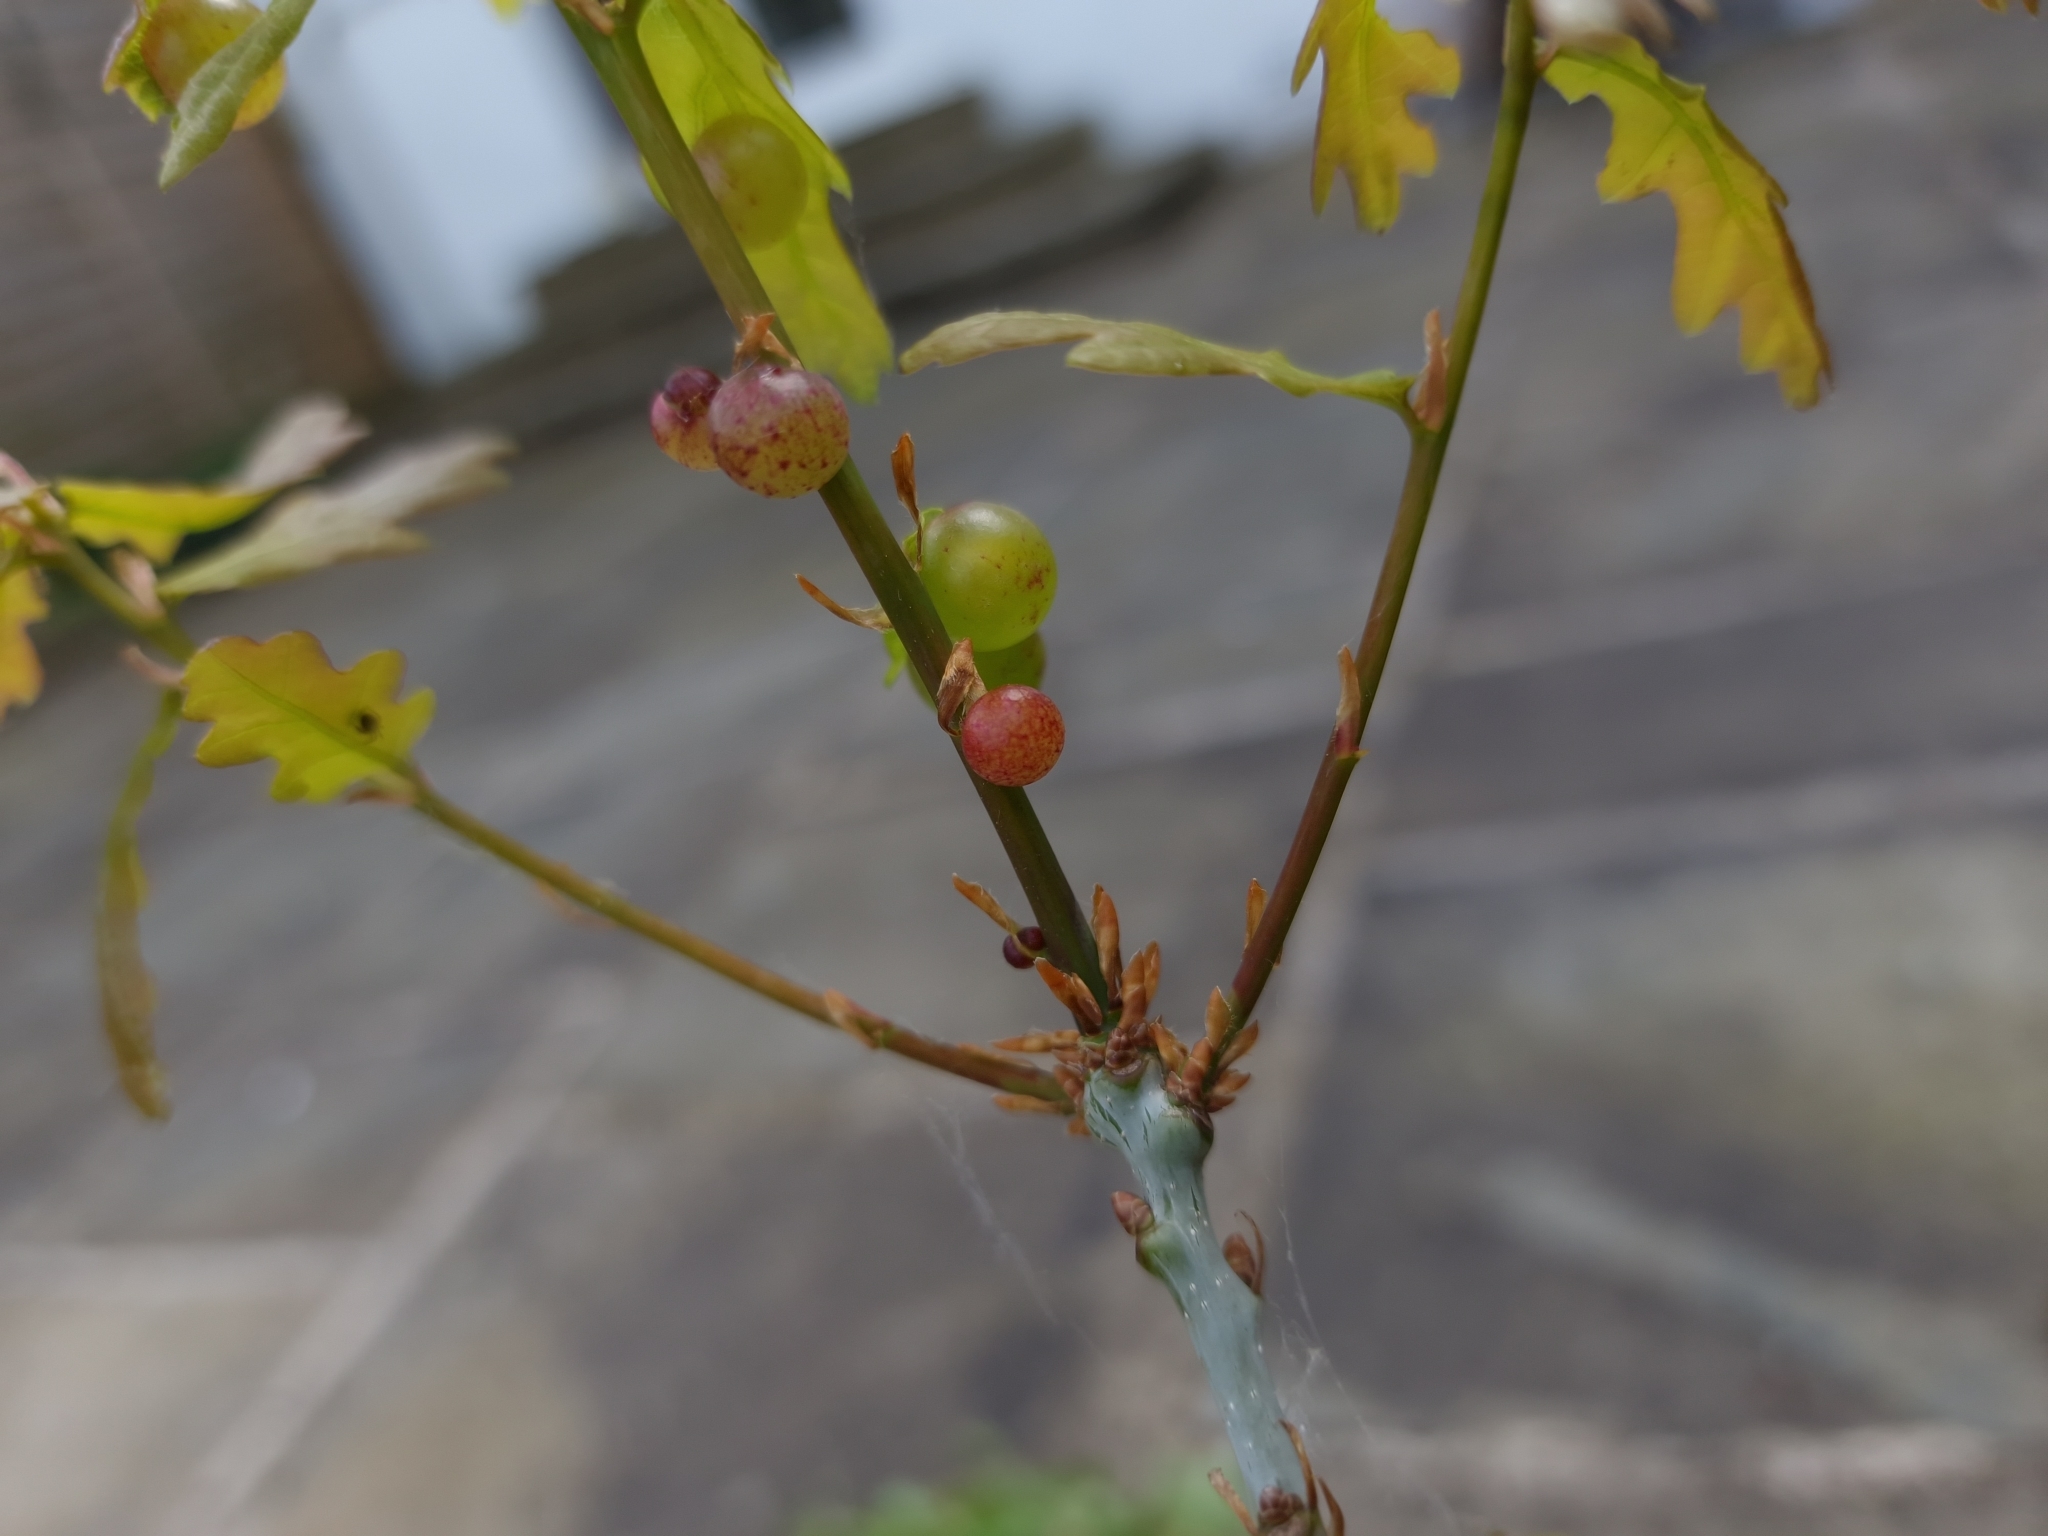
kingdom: Animalia
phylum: Arthropoda
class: Insecta
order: Hymenoptera
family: Cynipidae
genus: Neuroterus
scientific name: Neuroterus quercusbaccarum
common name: Common spangle gall
